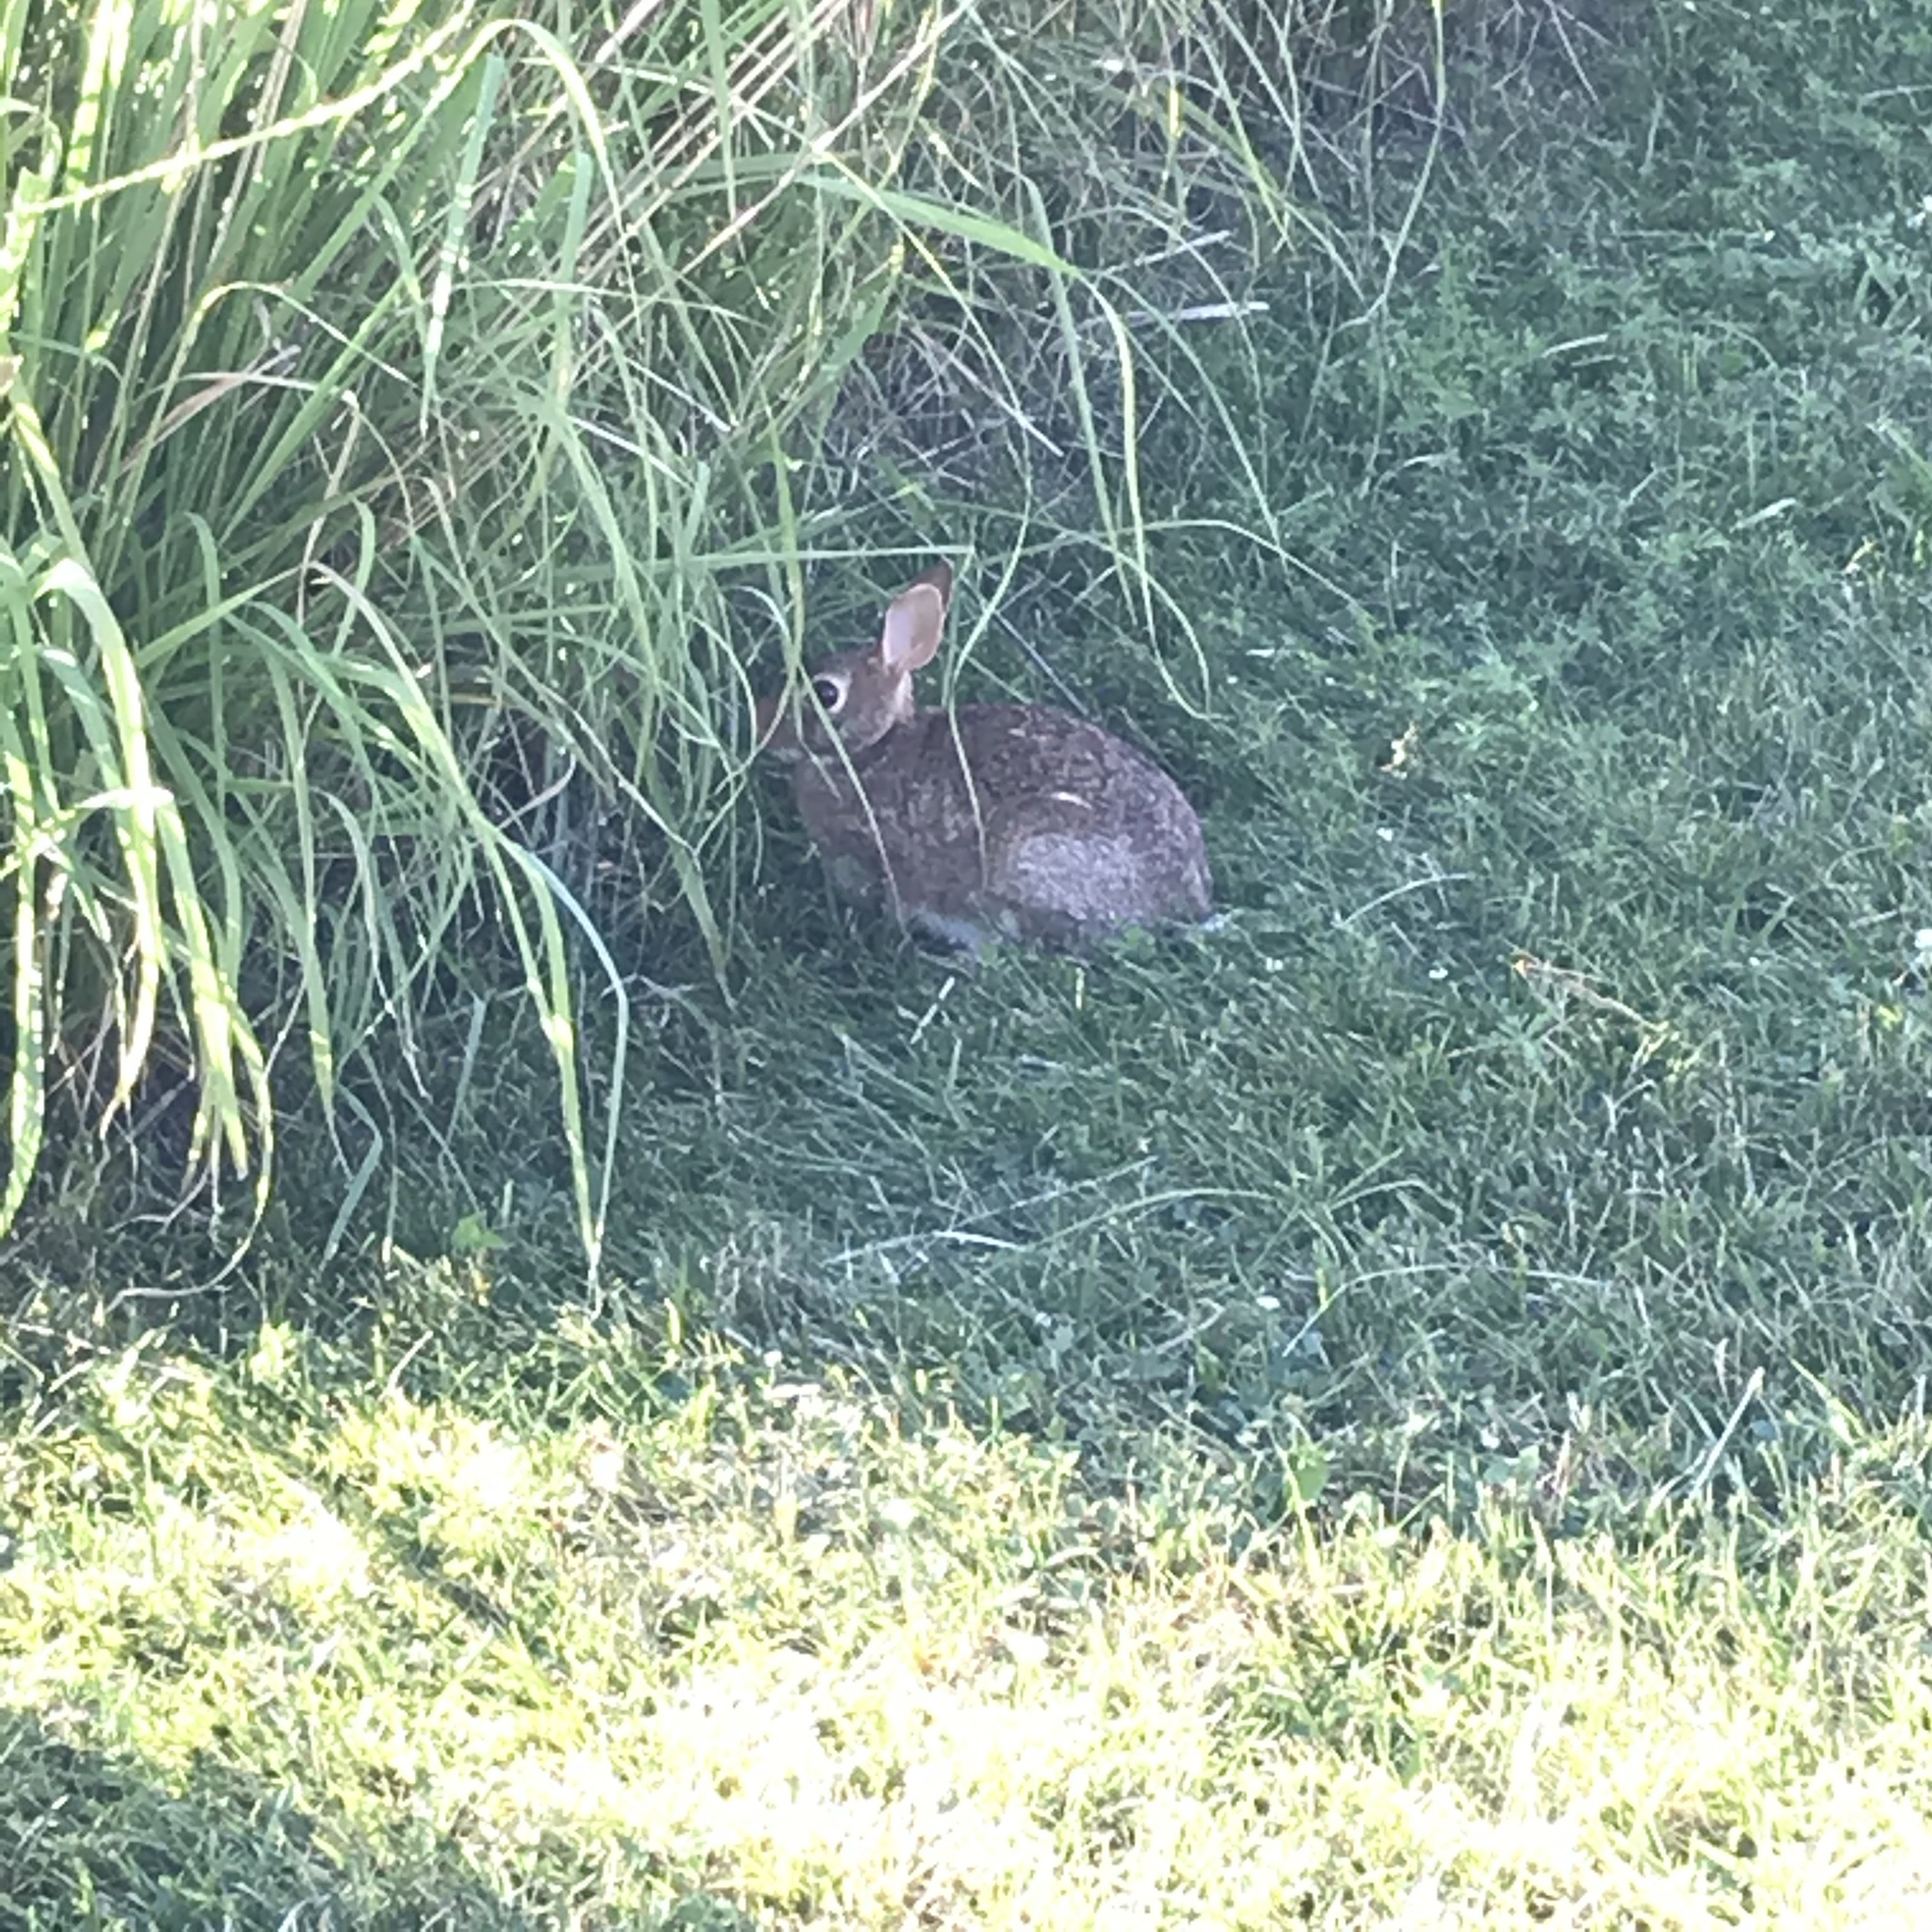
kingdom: Animalia
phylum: Chordata
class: Mammalia
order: Lagomorpha
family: Leporidae
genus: Sylvilagus
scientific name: Sylvilagus floridanus
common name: Eastern cottontail
